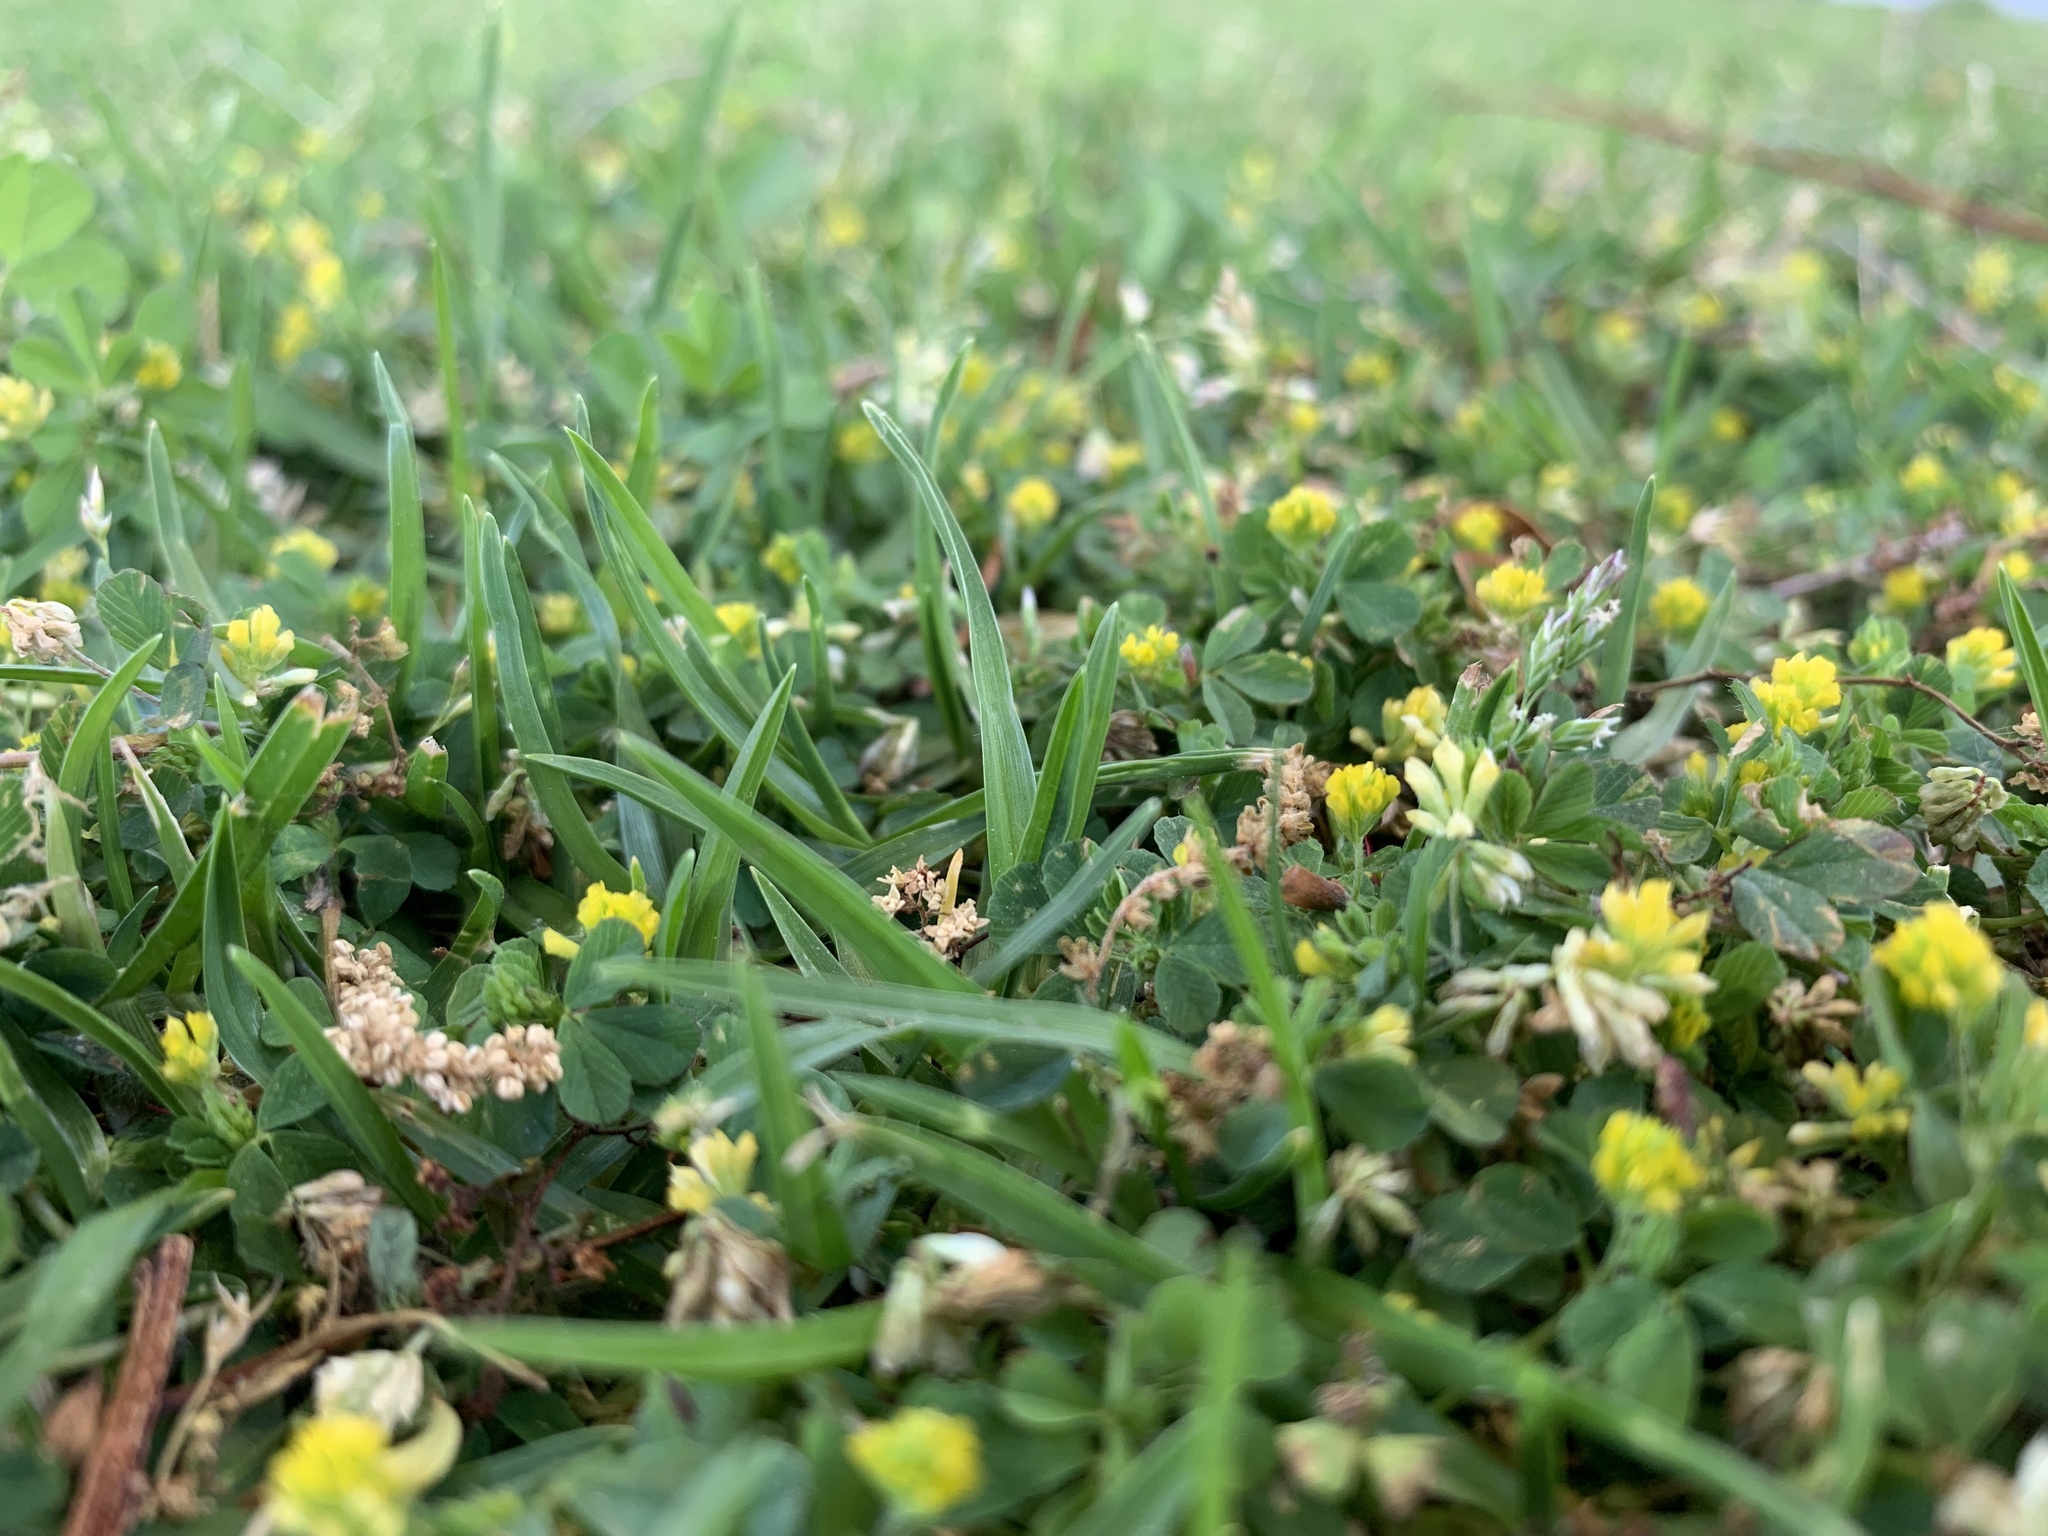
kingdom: Plantae
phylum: Tracheophyta
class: Magnoliopsida
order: Fabales
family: Fabaceae
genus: Trifolium
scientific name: Trifolium dubium
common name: Suckling clover
